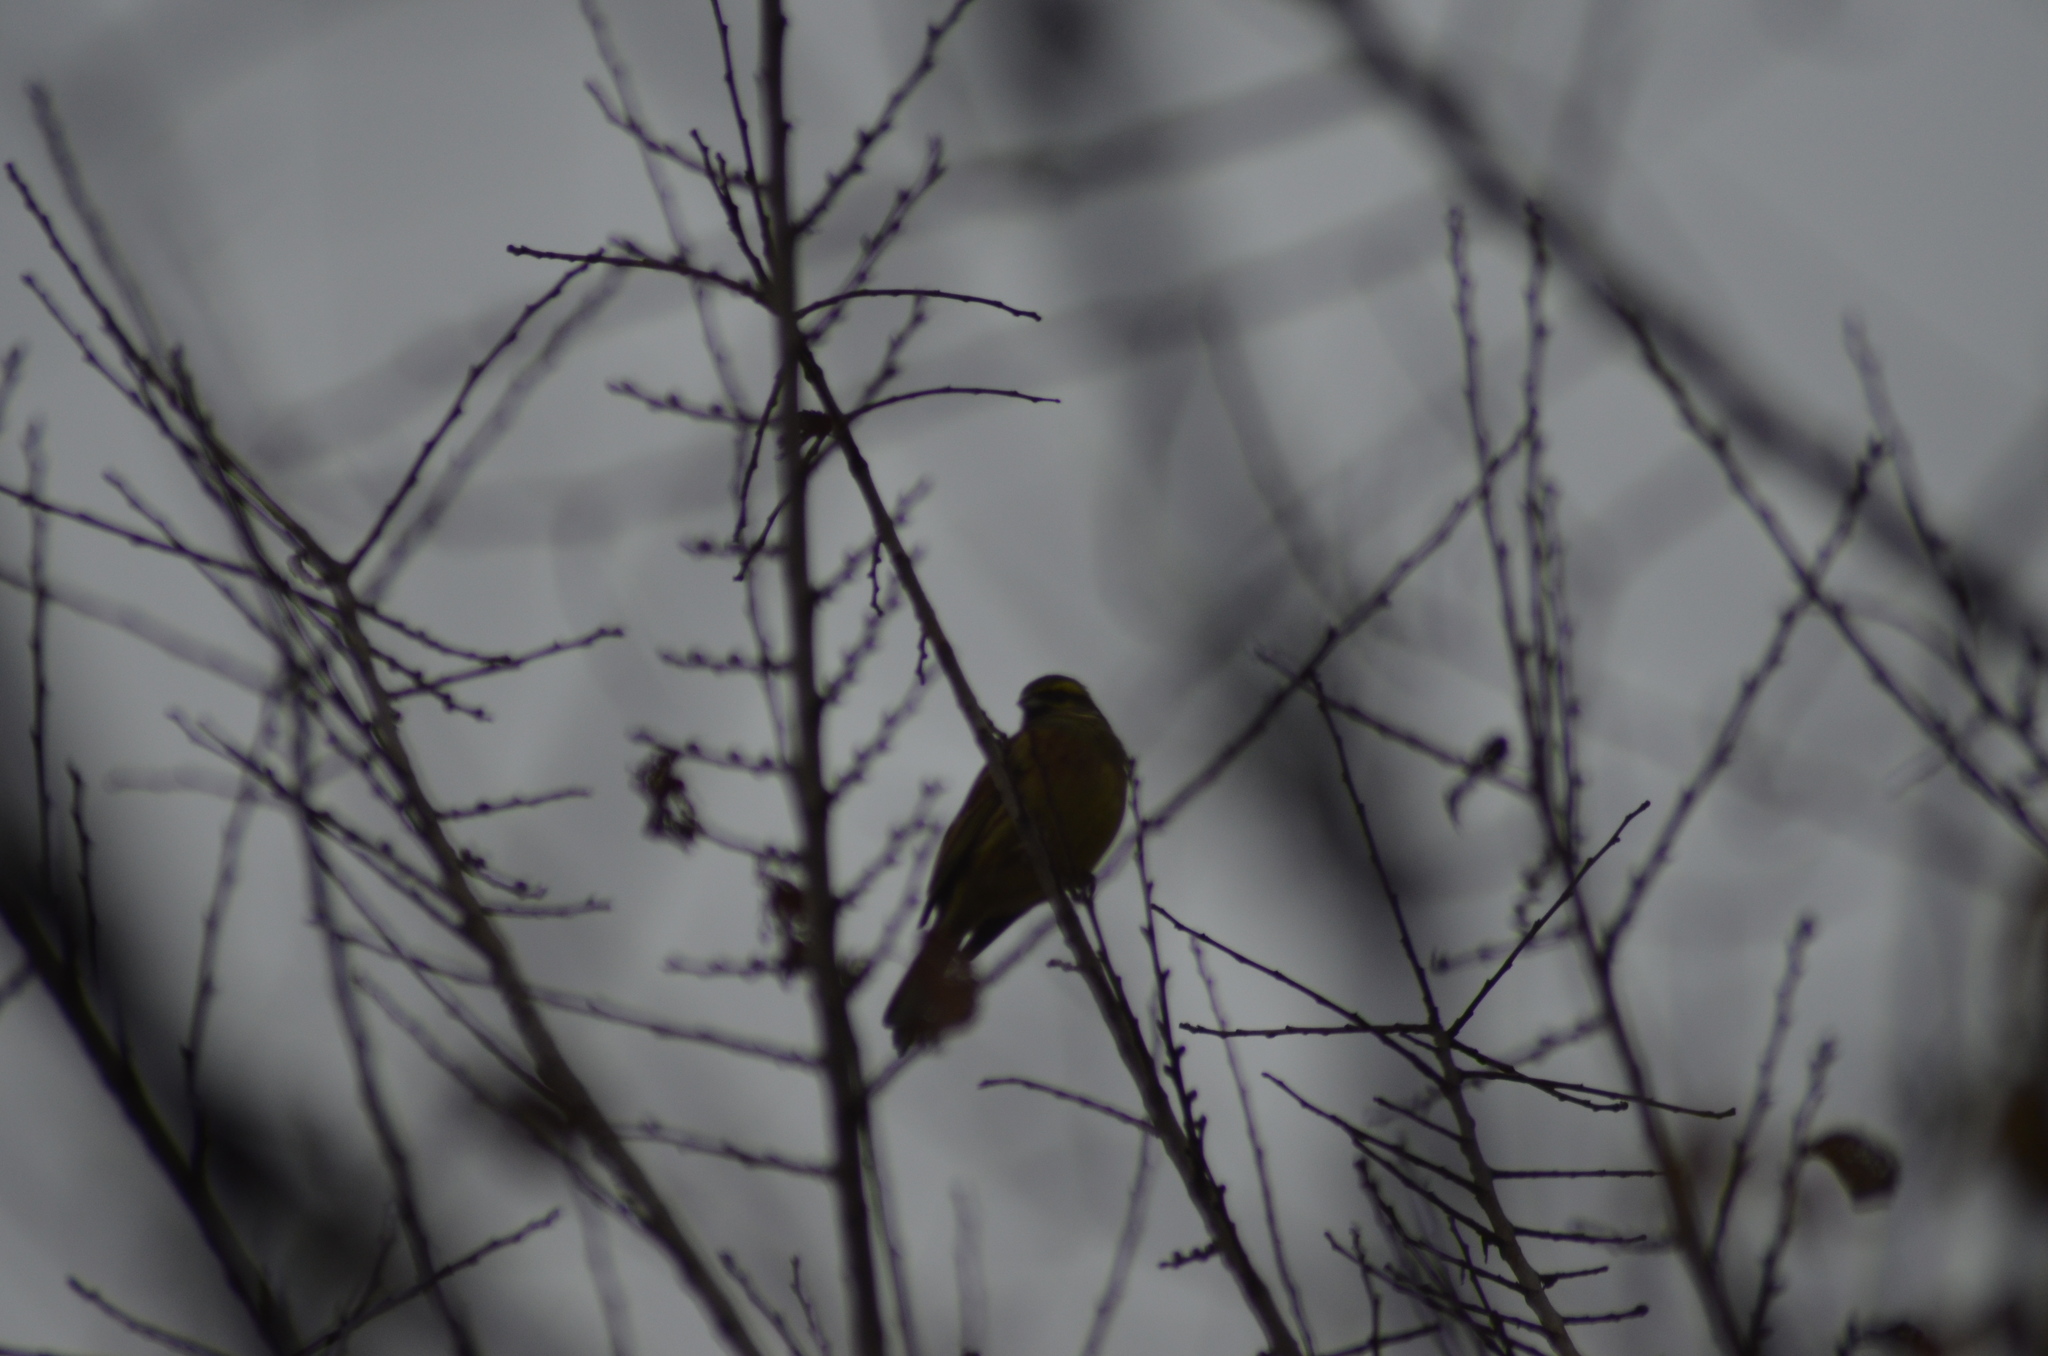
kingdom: Animalia
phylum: Chordata
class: Aves
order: Passeriformes
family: Emberizidae
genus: Emberiza
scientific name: Emberiza cirlus
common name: Cirl bunting
